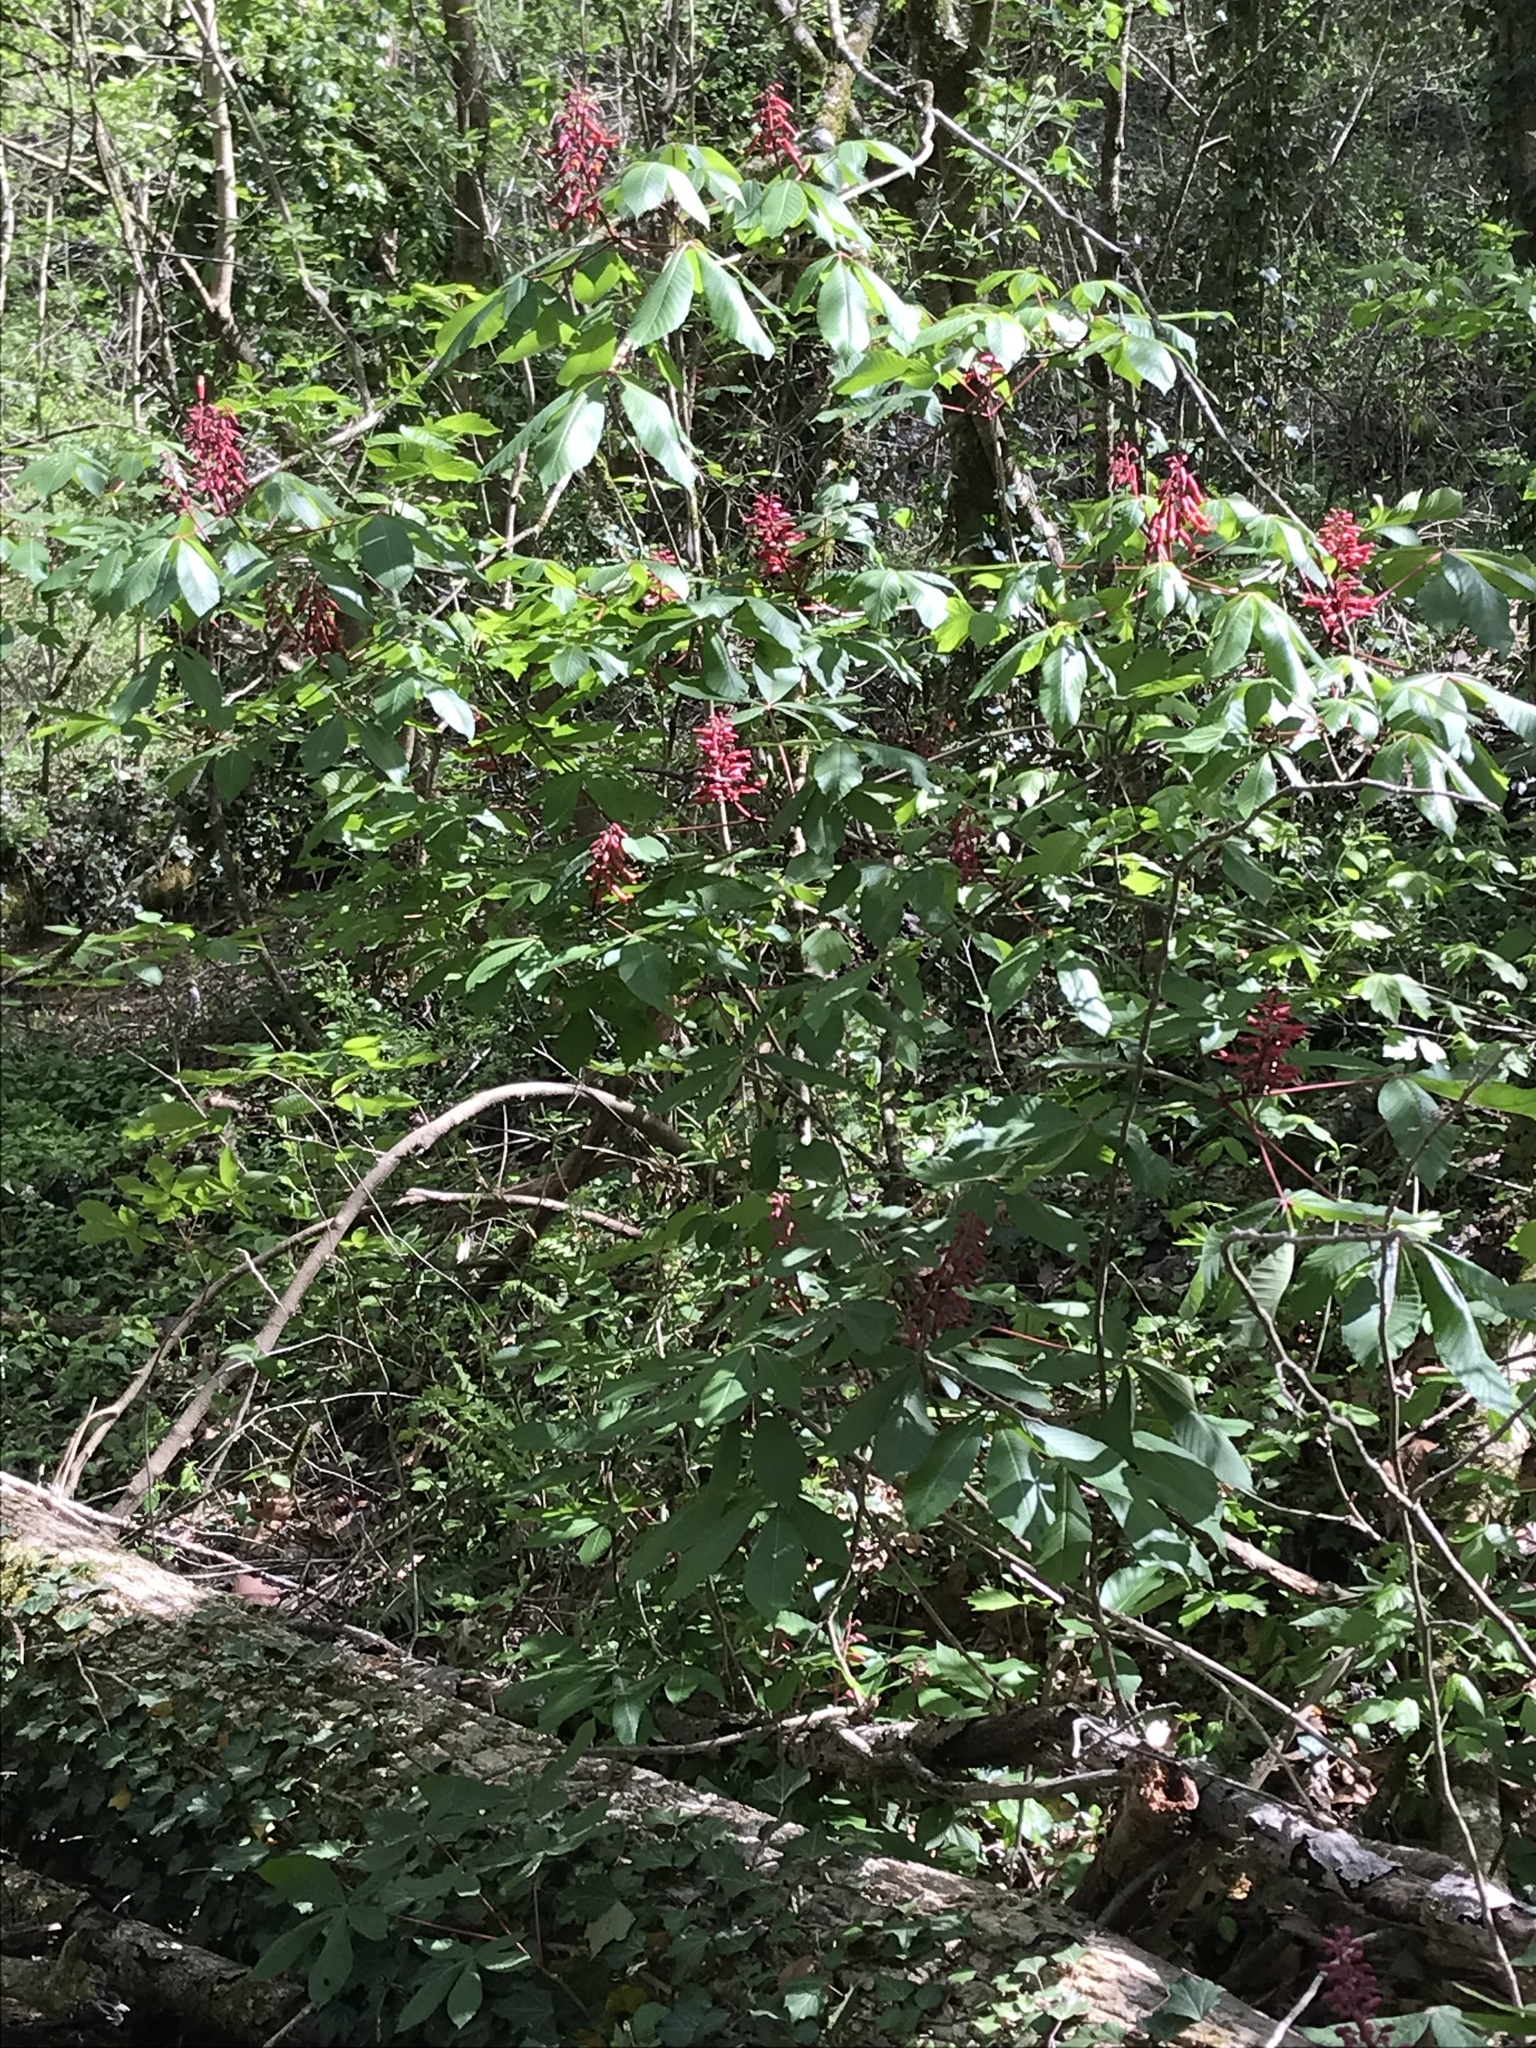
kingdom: Plantae
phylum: Tracheophyta
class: Magnoliopsida
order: Sapindales
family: Sapindaceae
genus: Aesculus
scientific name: Aesculus pavia
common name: Red buckeye
